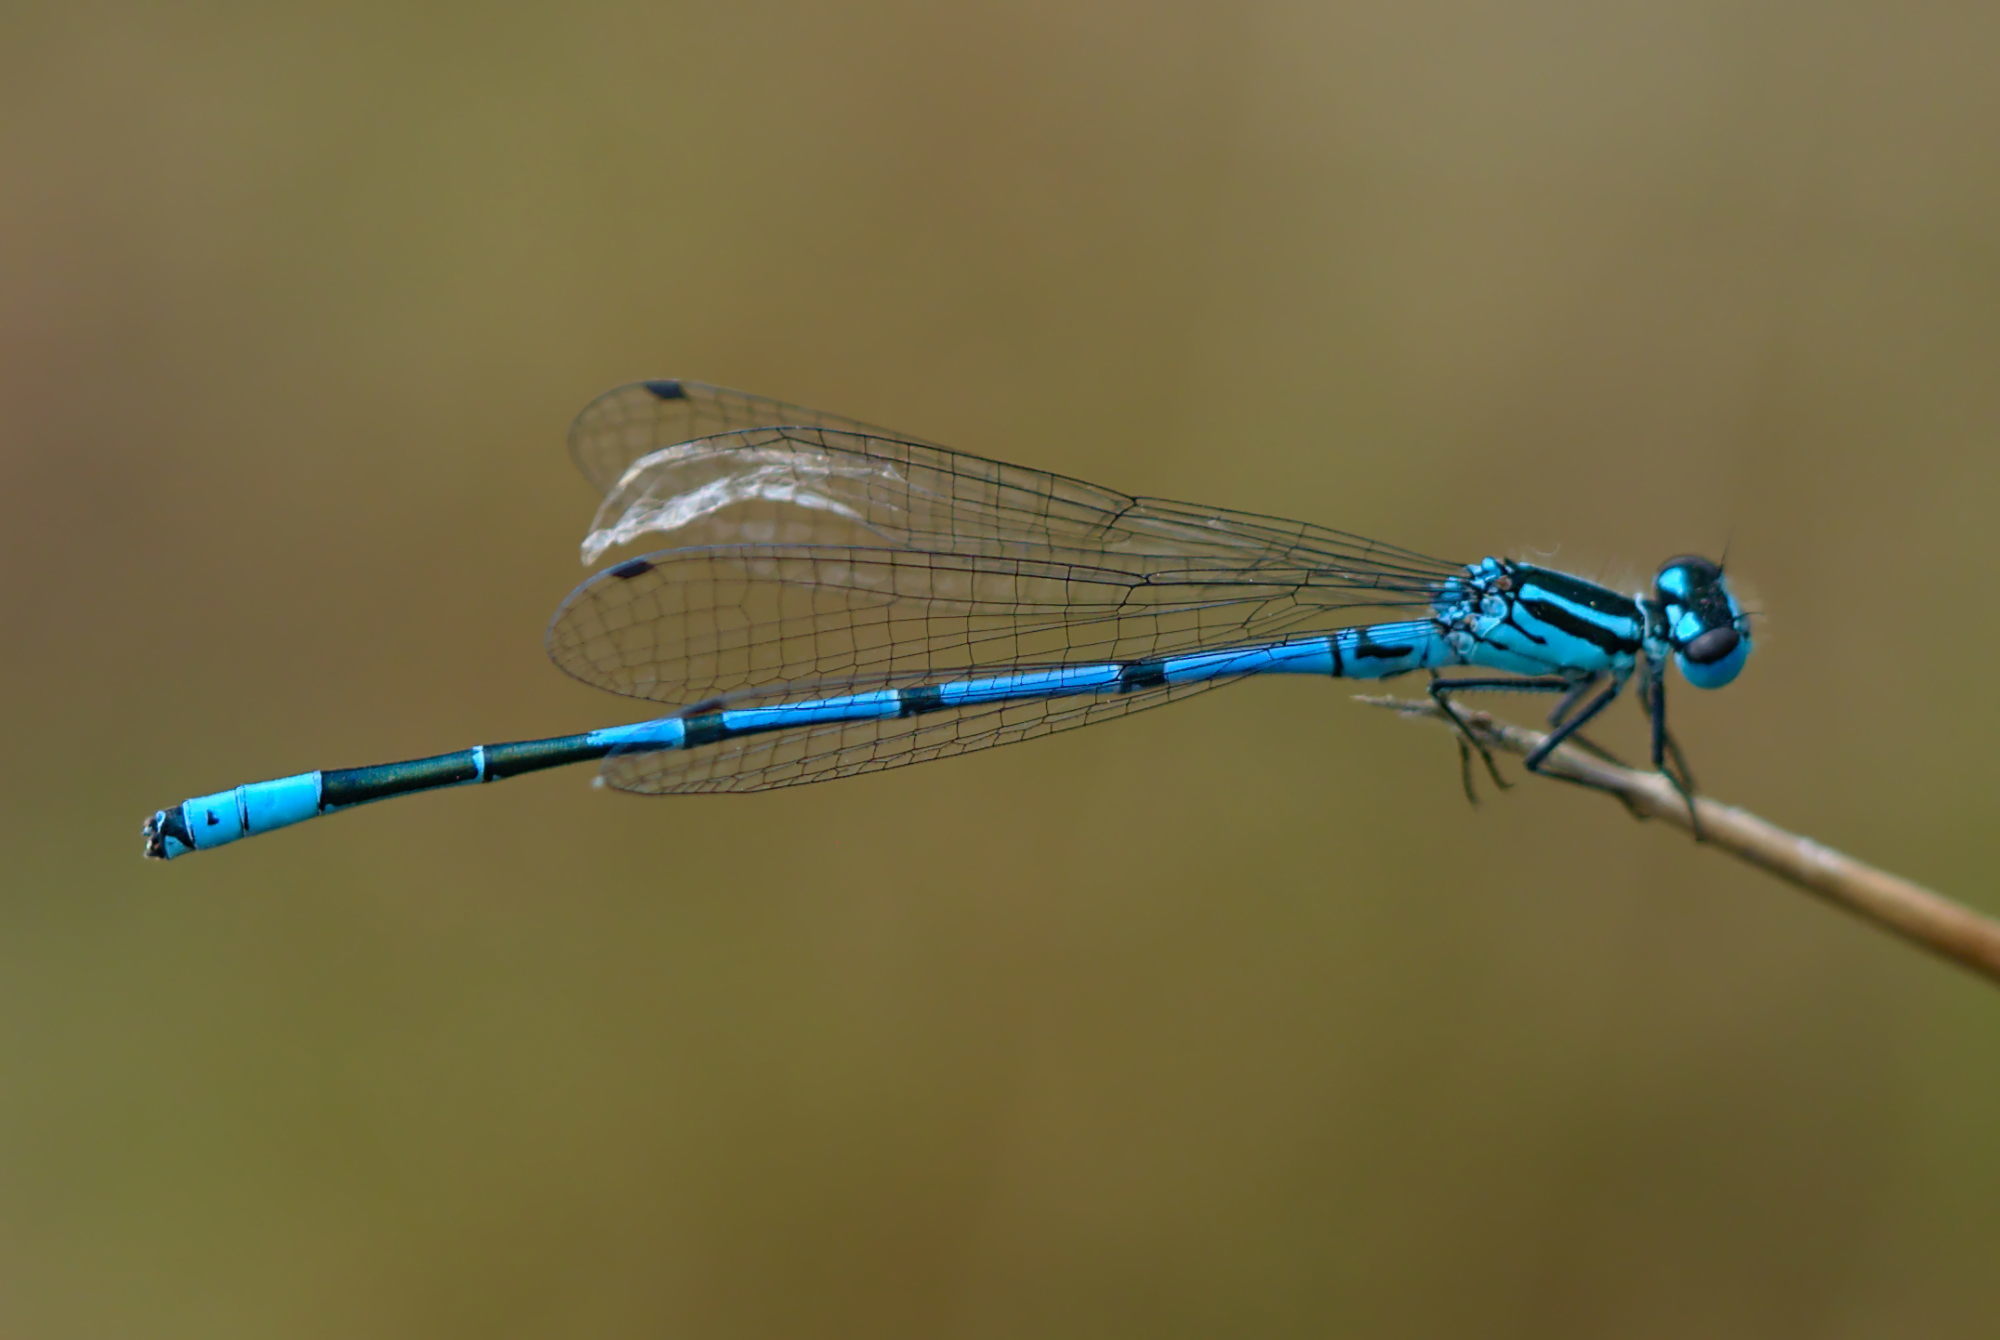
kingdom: Animalia
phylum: Arthropoda
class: Insecta
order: Odonata
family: Coenagrionidae
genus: Coenagrion
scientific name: Coenagrion puella
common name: Azure damselfly
